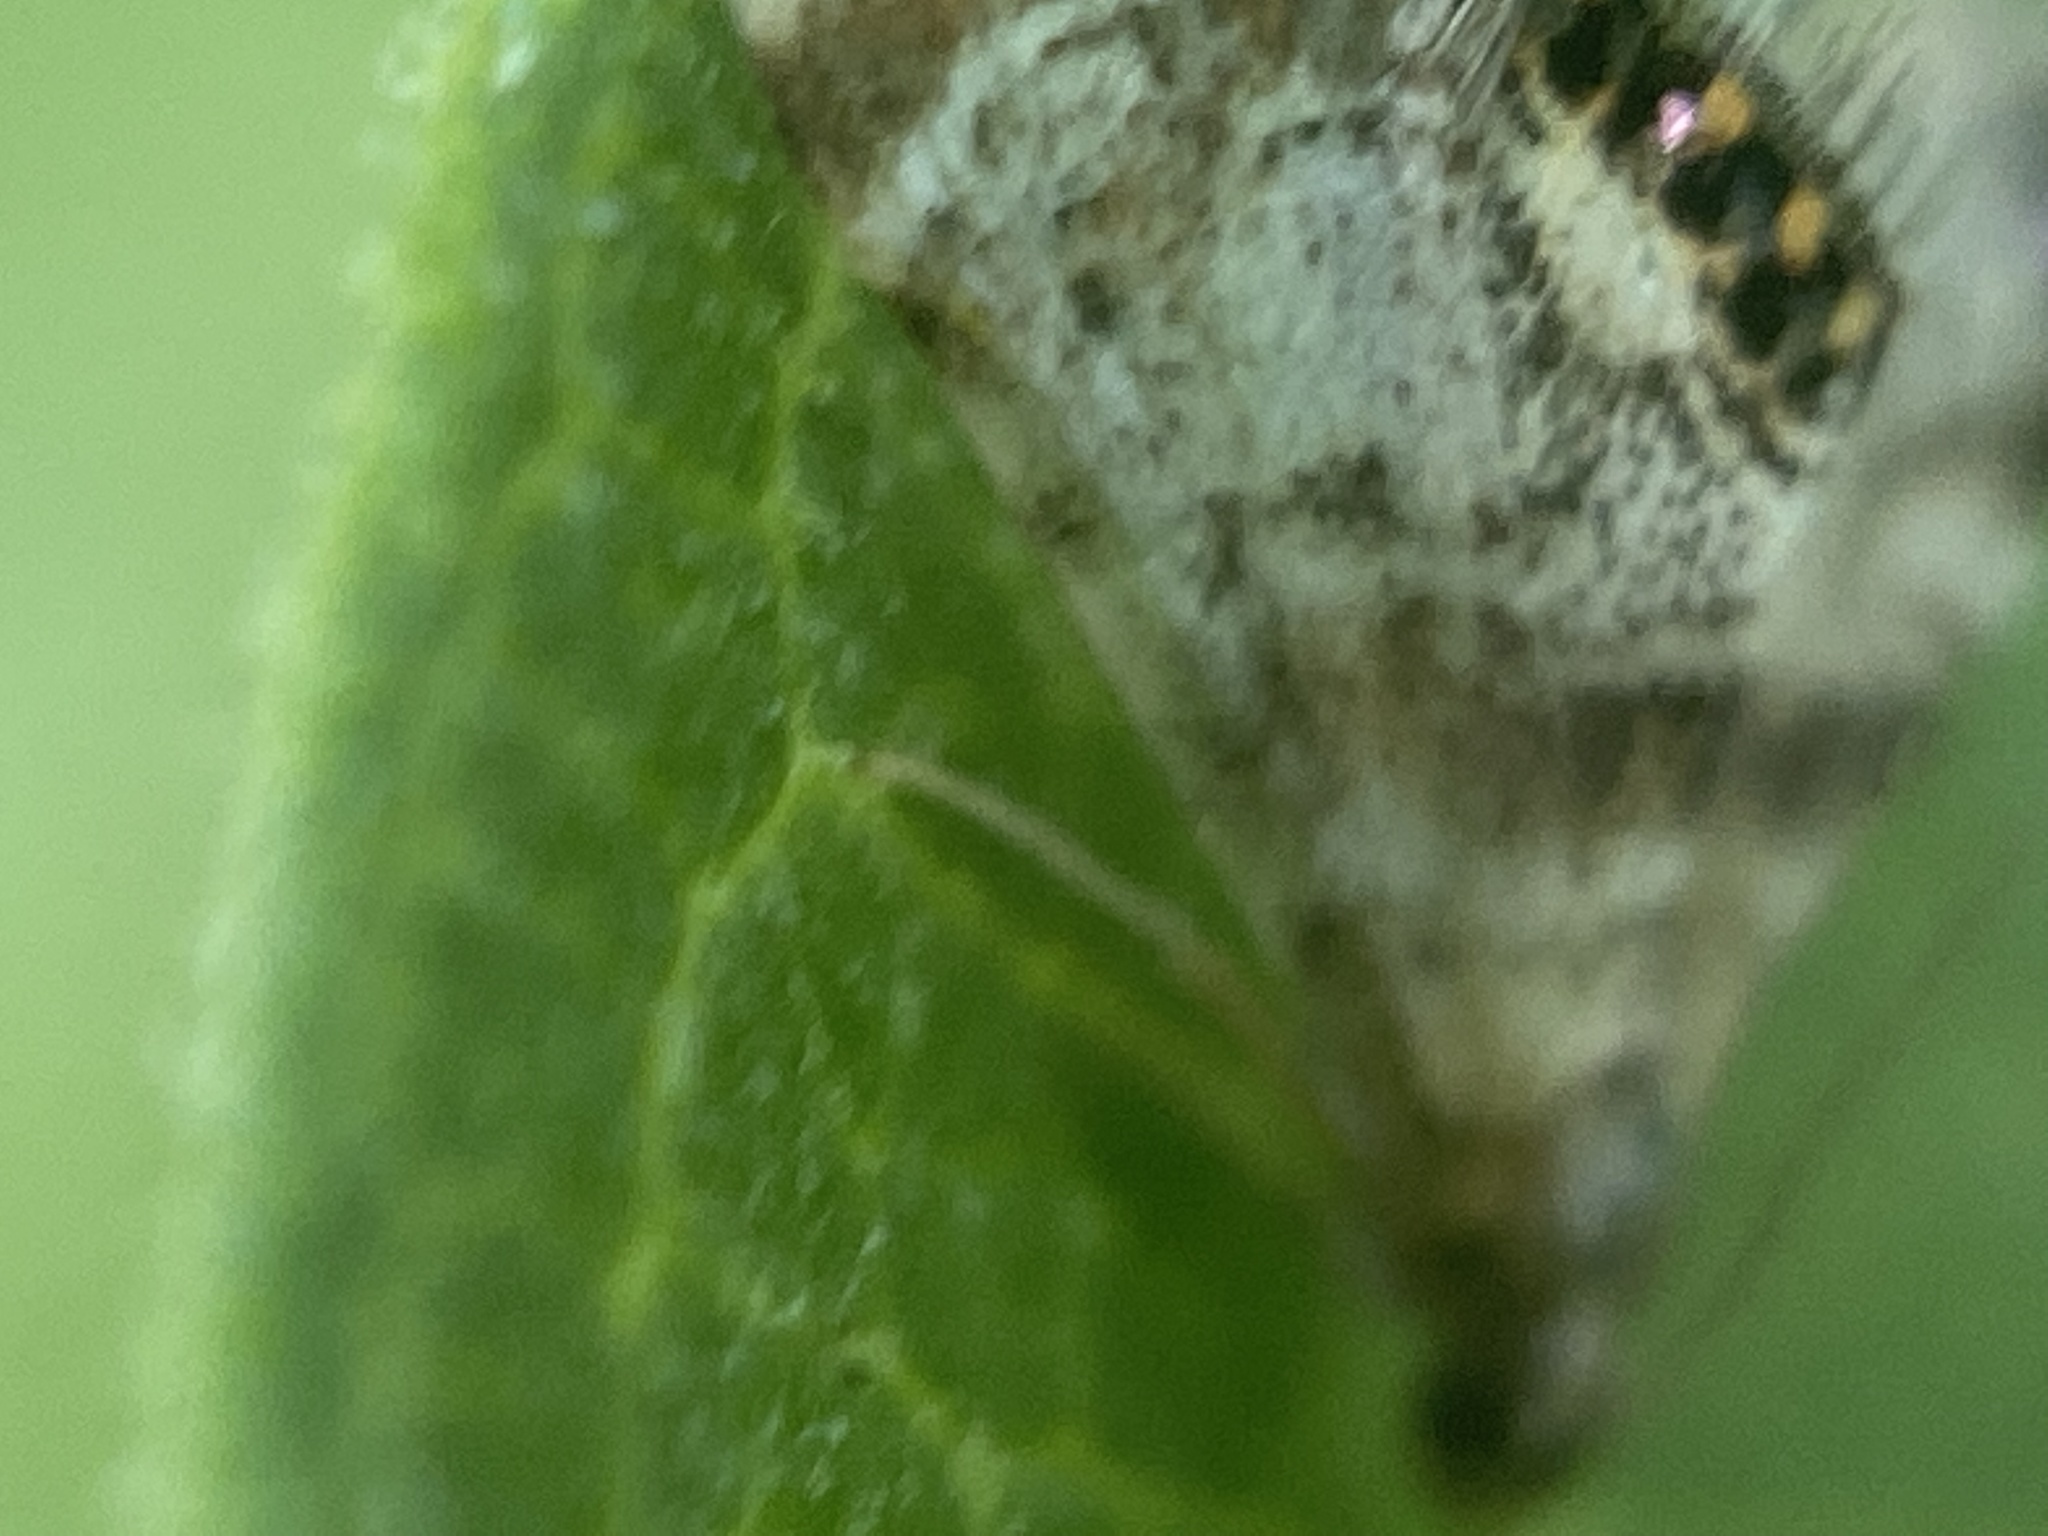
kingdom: Animalia
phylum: Arthropoda
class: Insecta
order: Lepidoptera
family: Crambidae
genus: Petrophila
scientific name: Petrophila fulicalis
